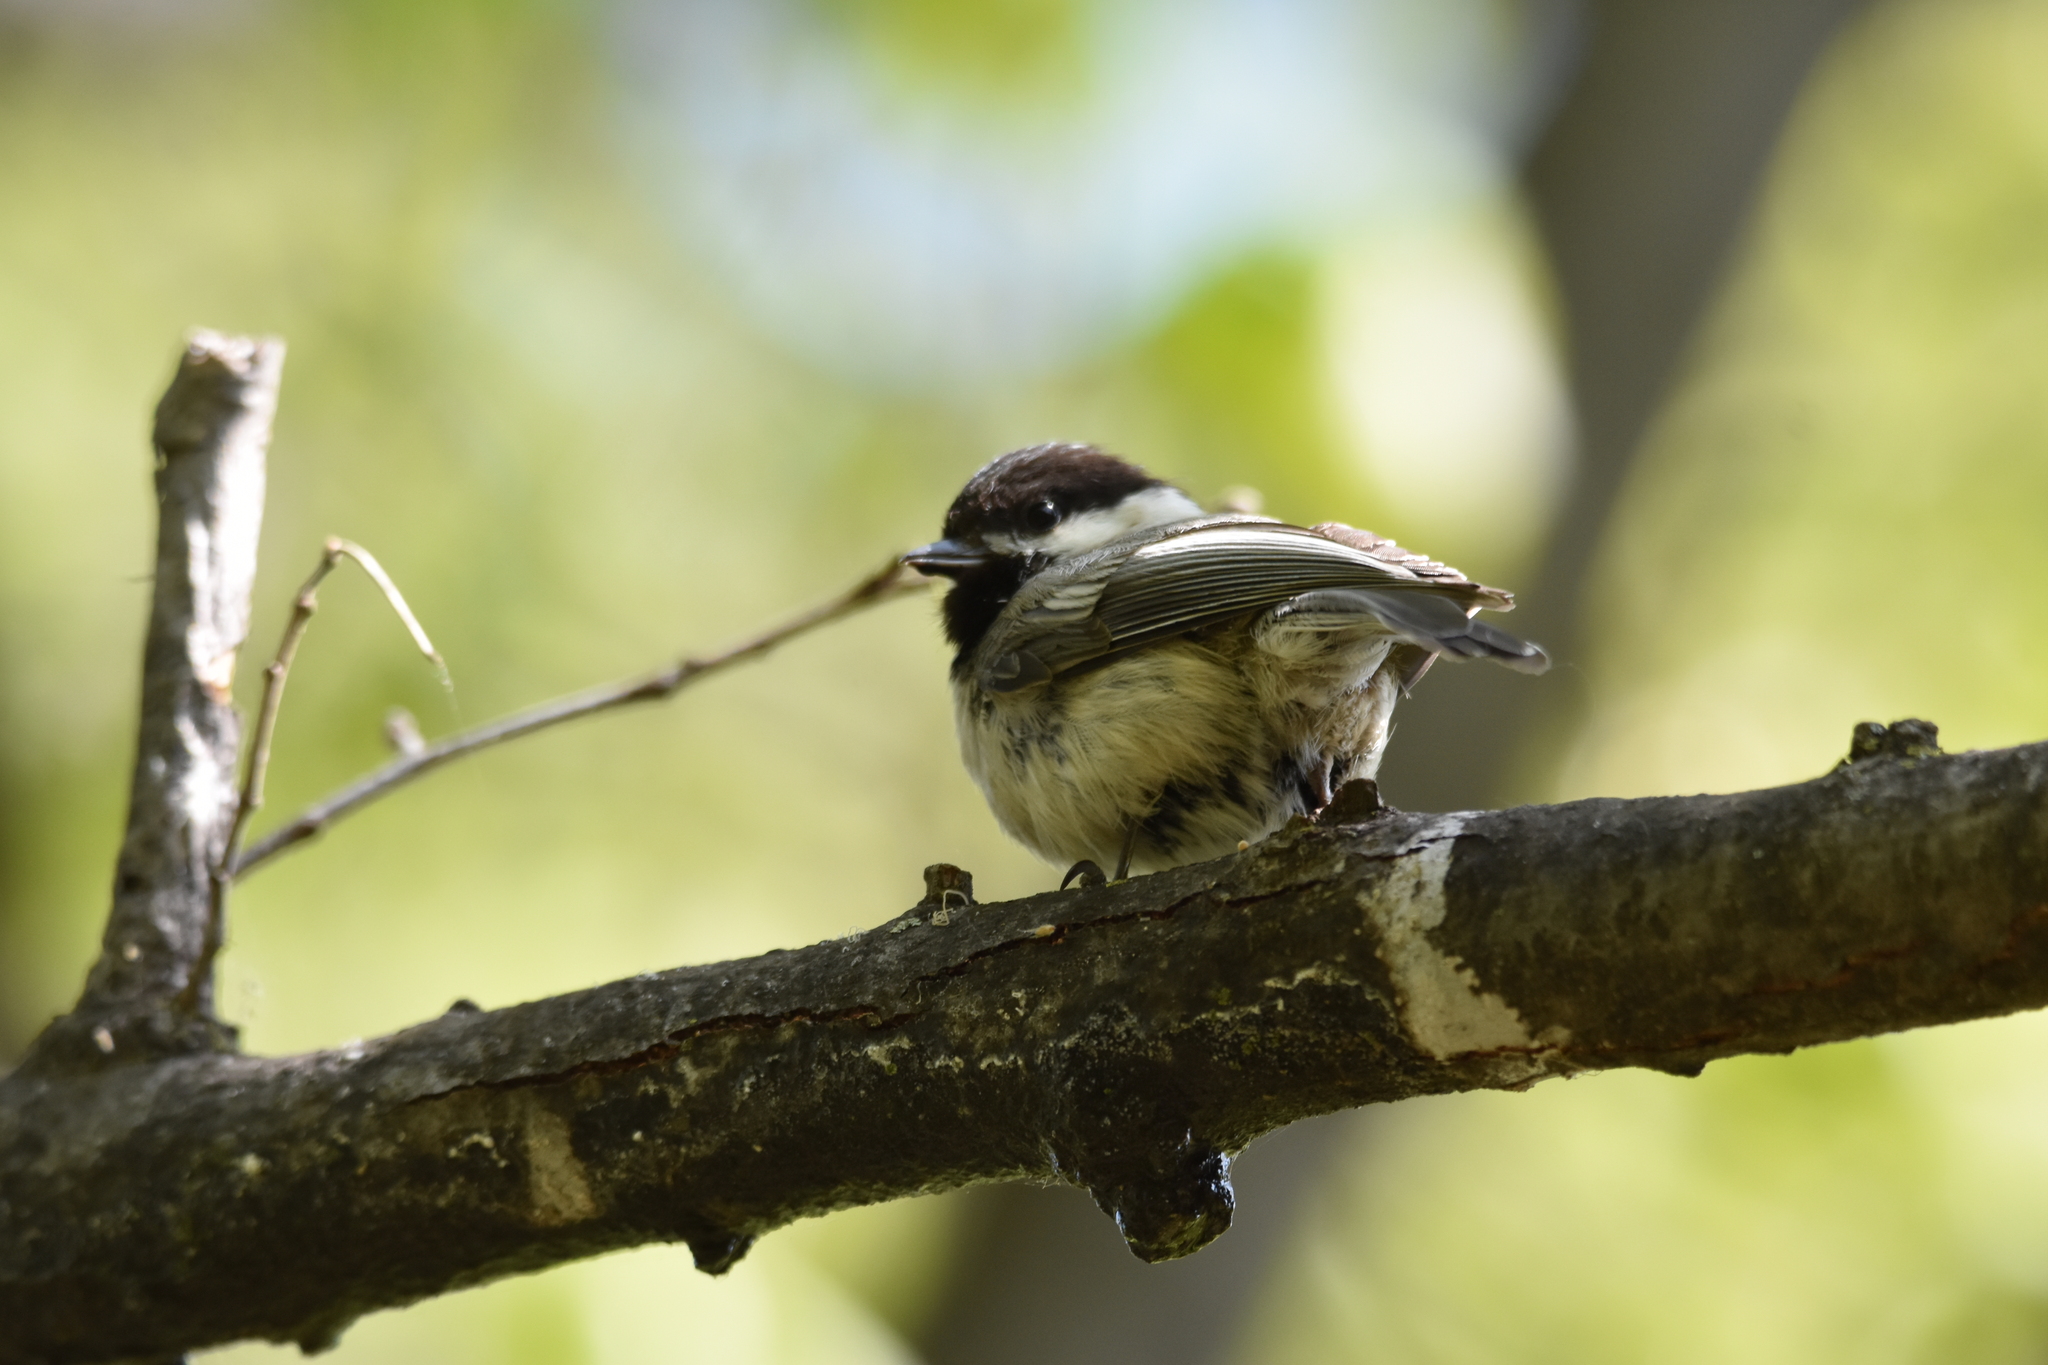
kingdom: Animalia
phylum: Chordata
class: Aves
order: Passeriformes
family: Paridae
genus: Poecile
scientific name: Poecile atricapillus
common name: Black-capped chickadee
